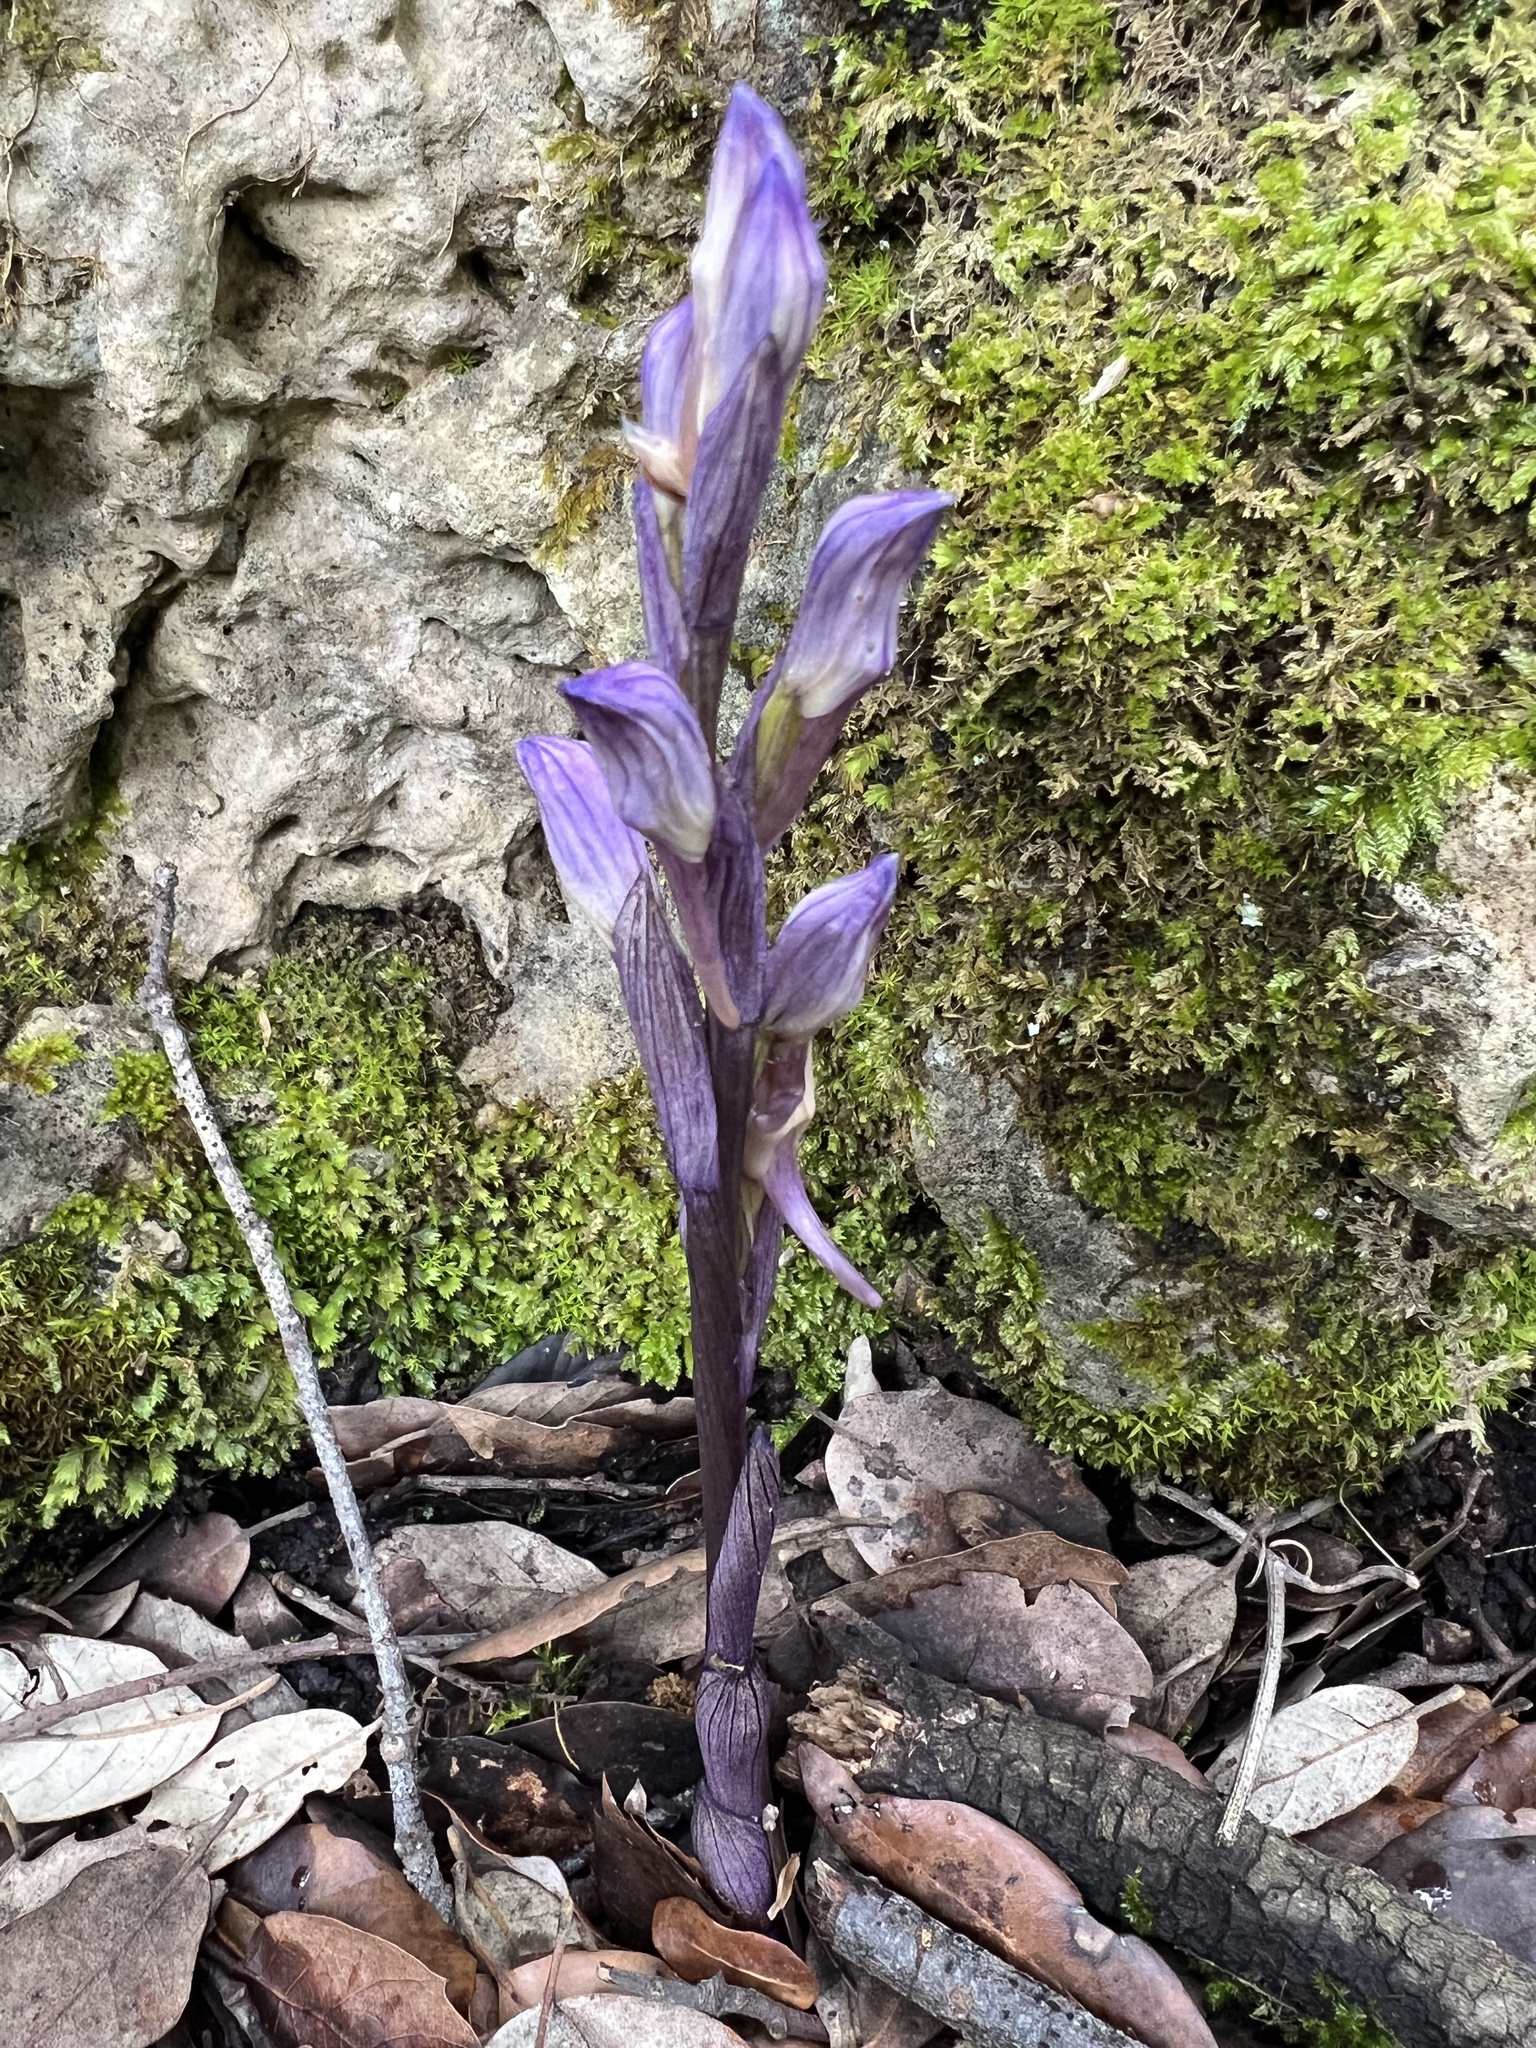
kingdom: Plantae
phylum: Tracheophyta
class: Liliopsida
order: Asparagales
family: Orchidaceae
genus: Limodorum
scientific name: Limodorum abortivum
